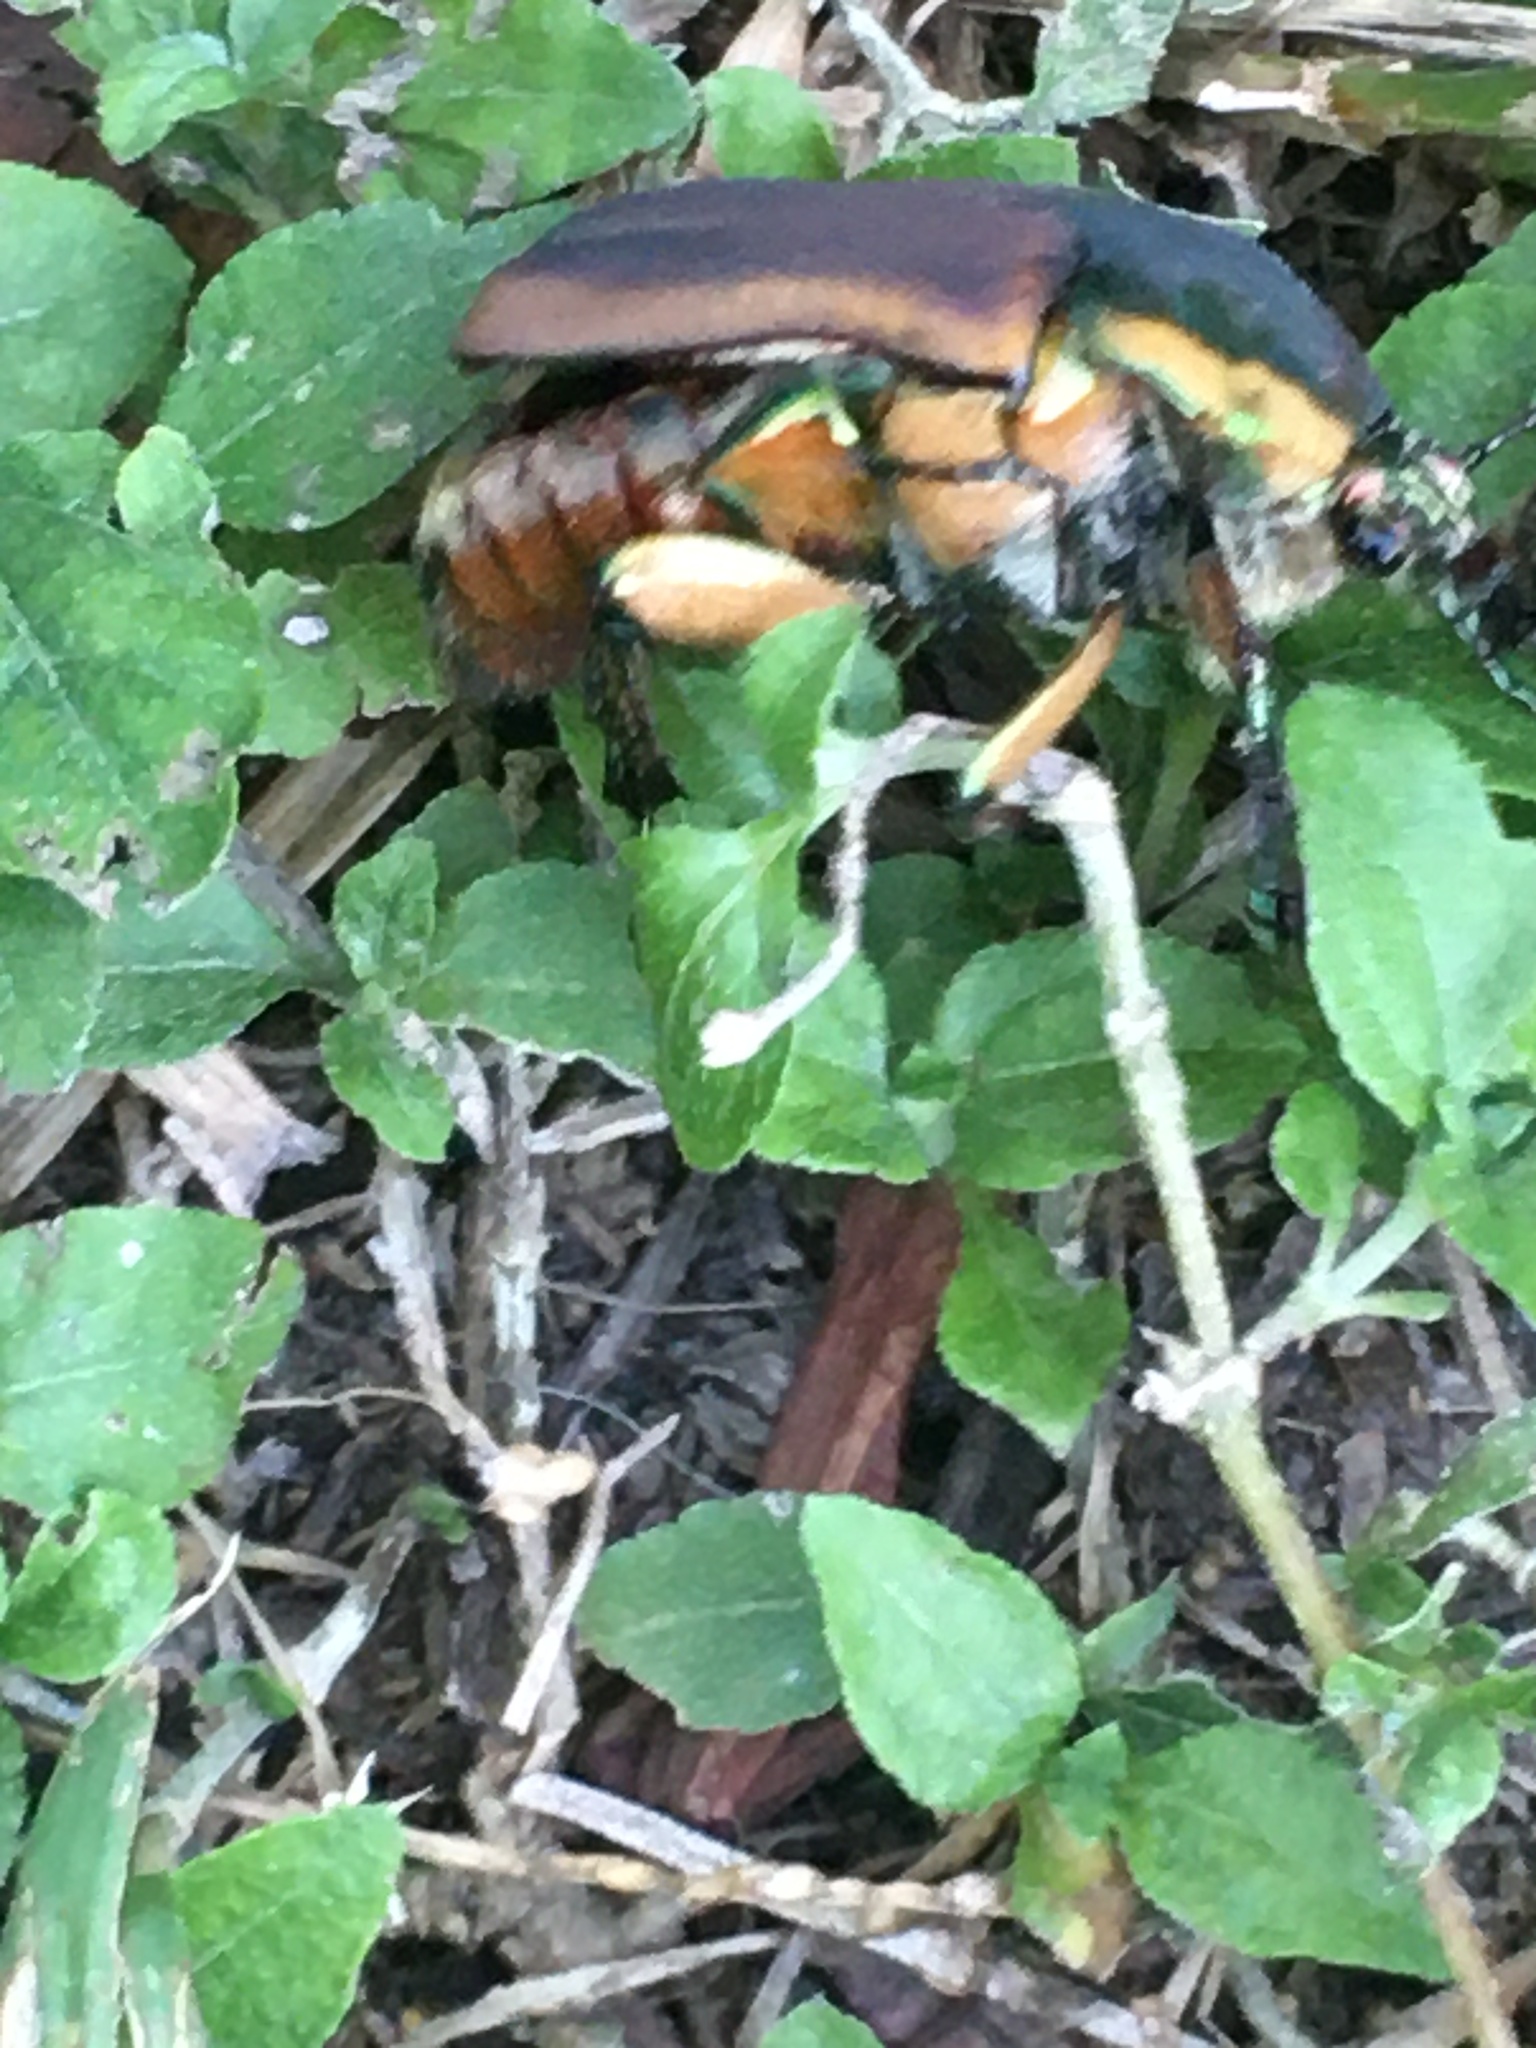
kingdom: Animalia
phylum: Arthropoda
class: Insecta
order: Coleoptera
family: Scarabaeidae
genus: Cotinis
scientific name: Cotinis nitida
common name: Common green june beetle
